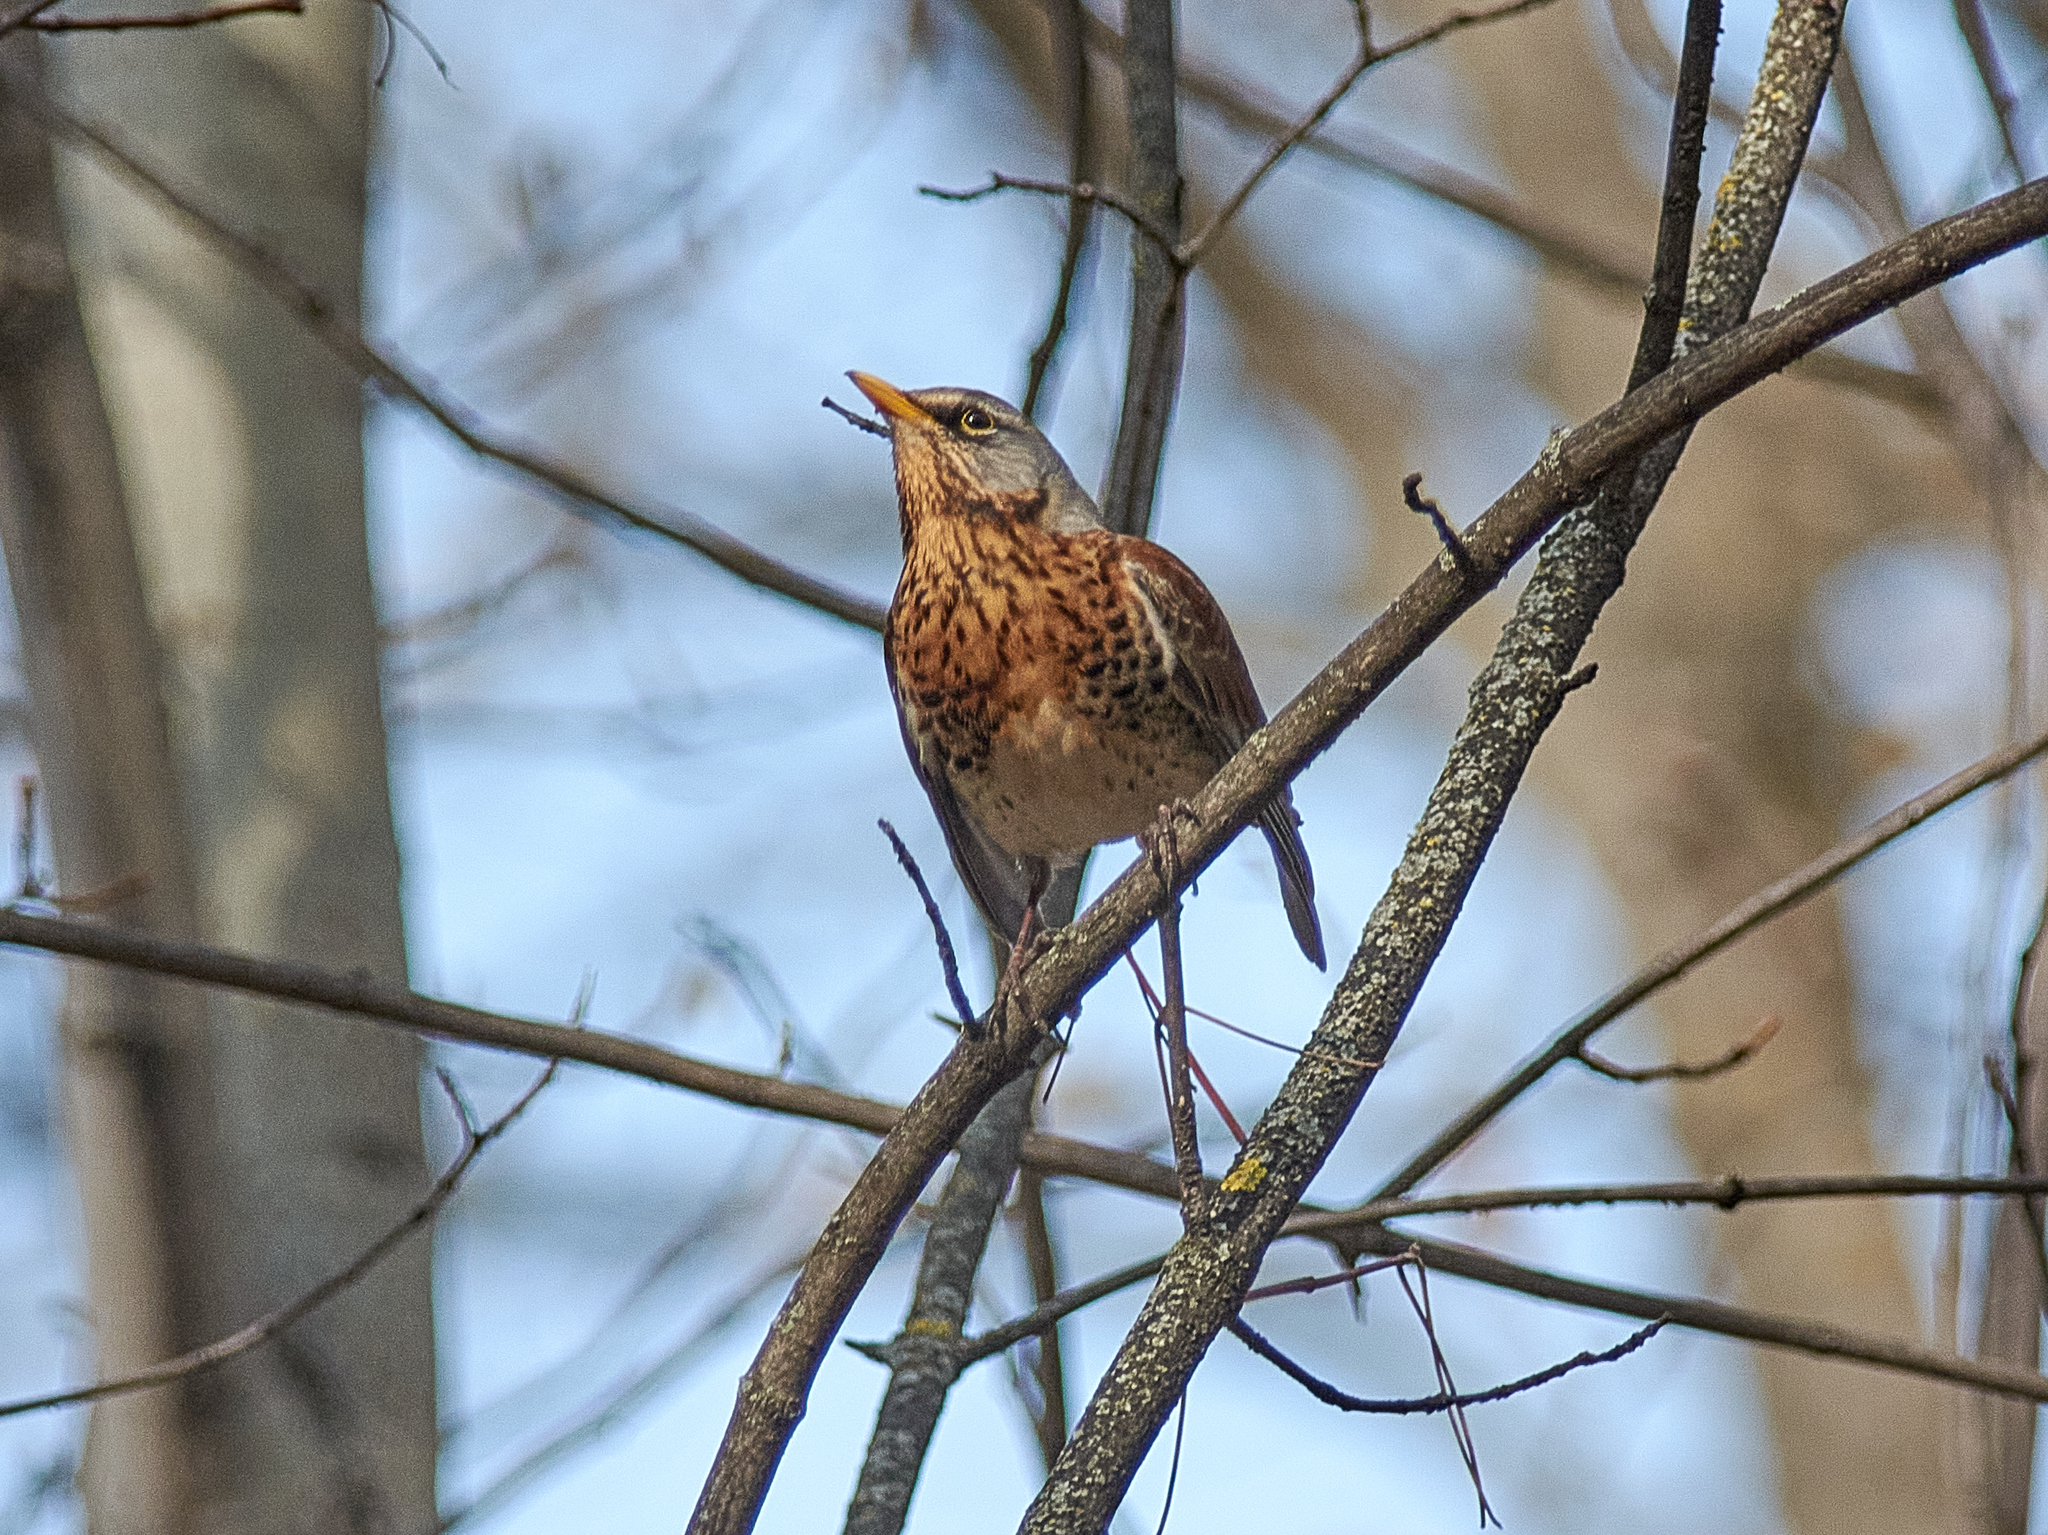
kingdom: Animalia
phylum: Chordata
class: Aves
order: Passeriformes
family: Turdidae
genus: Turdus
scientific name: Turdus pilaris
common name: Fieldfare
